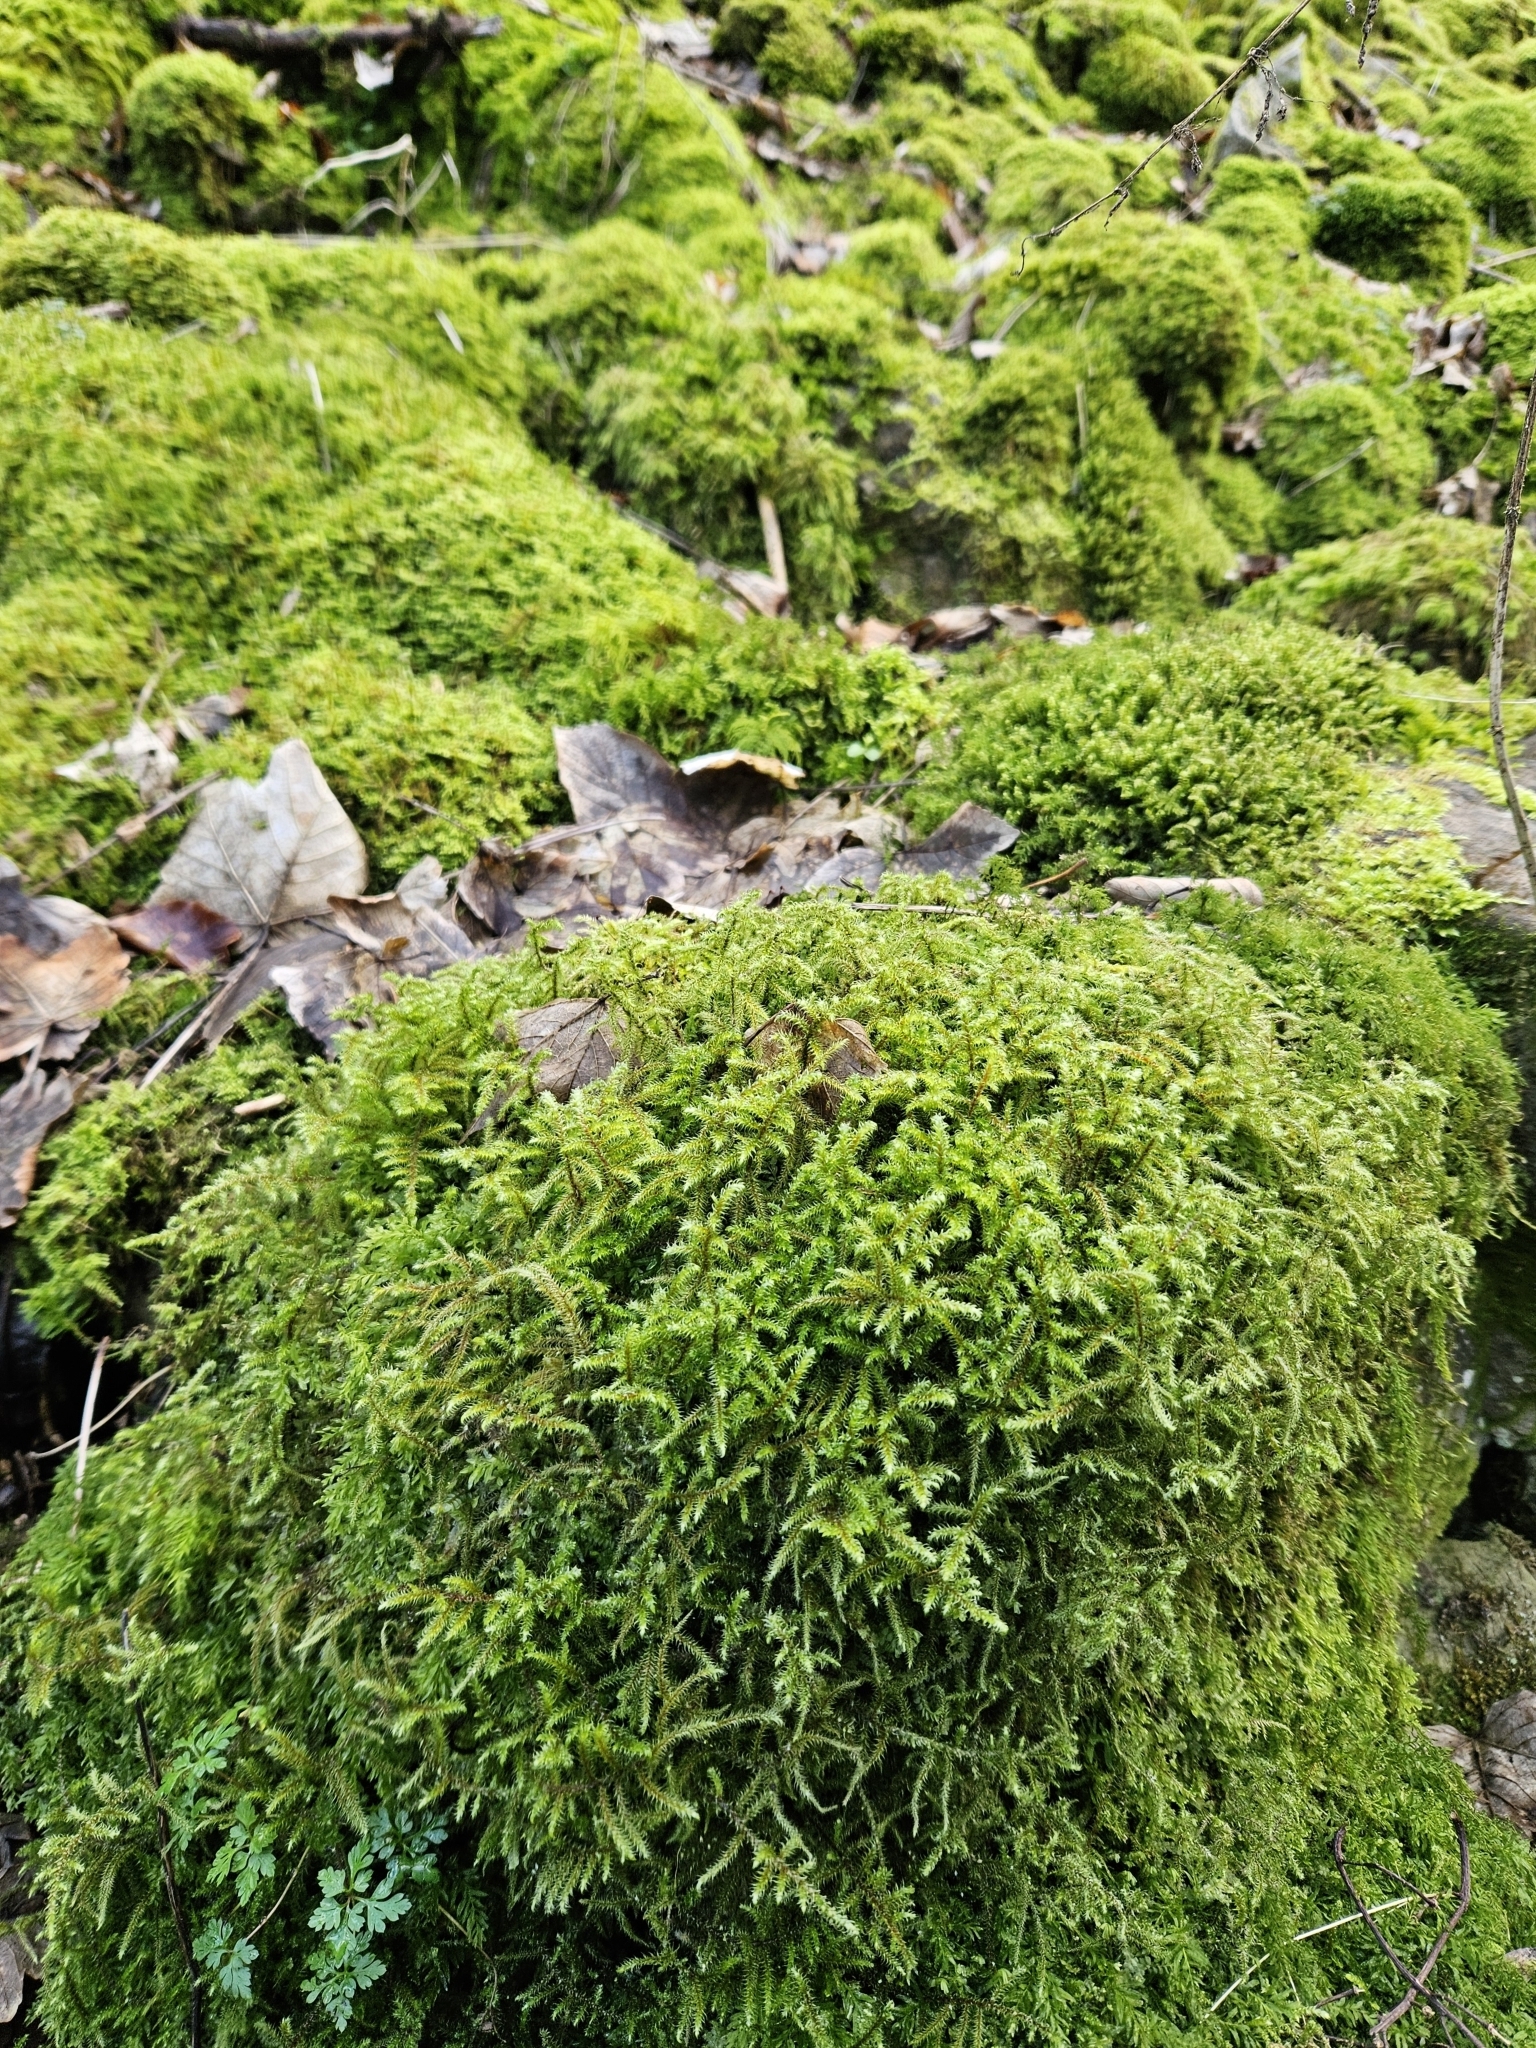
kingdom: Plantae
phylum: Bryophyta
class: Bryopsida
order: Hypnales
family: Hylocomiaceae
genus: Rhytidiadelphus
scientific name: Rhytidiadelphus loreus
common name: Lanky moss
